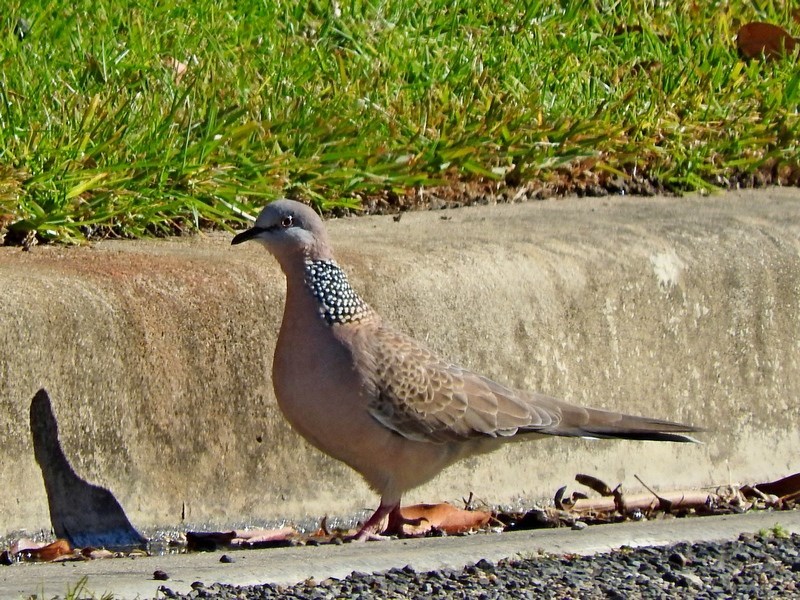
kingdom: Animalia
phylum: Chordata
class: Aves
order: Columbiformes
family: Columbidae
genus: Spilopelia
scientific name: Spilopelia chinensis
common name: Spotted dove
